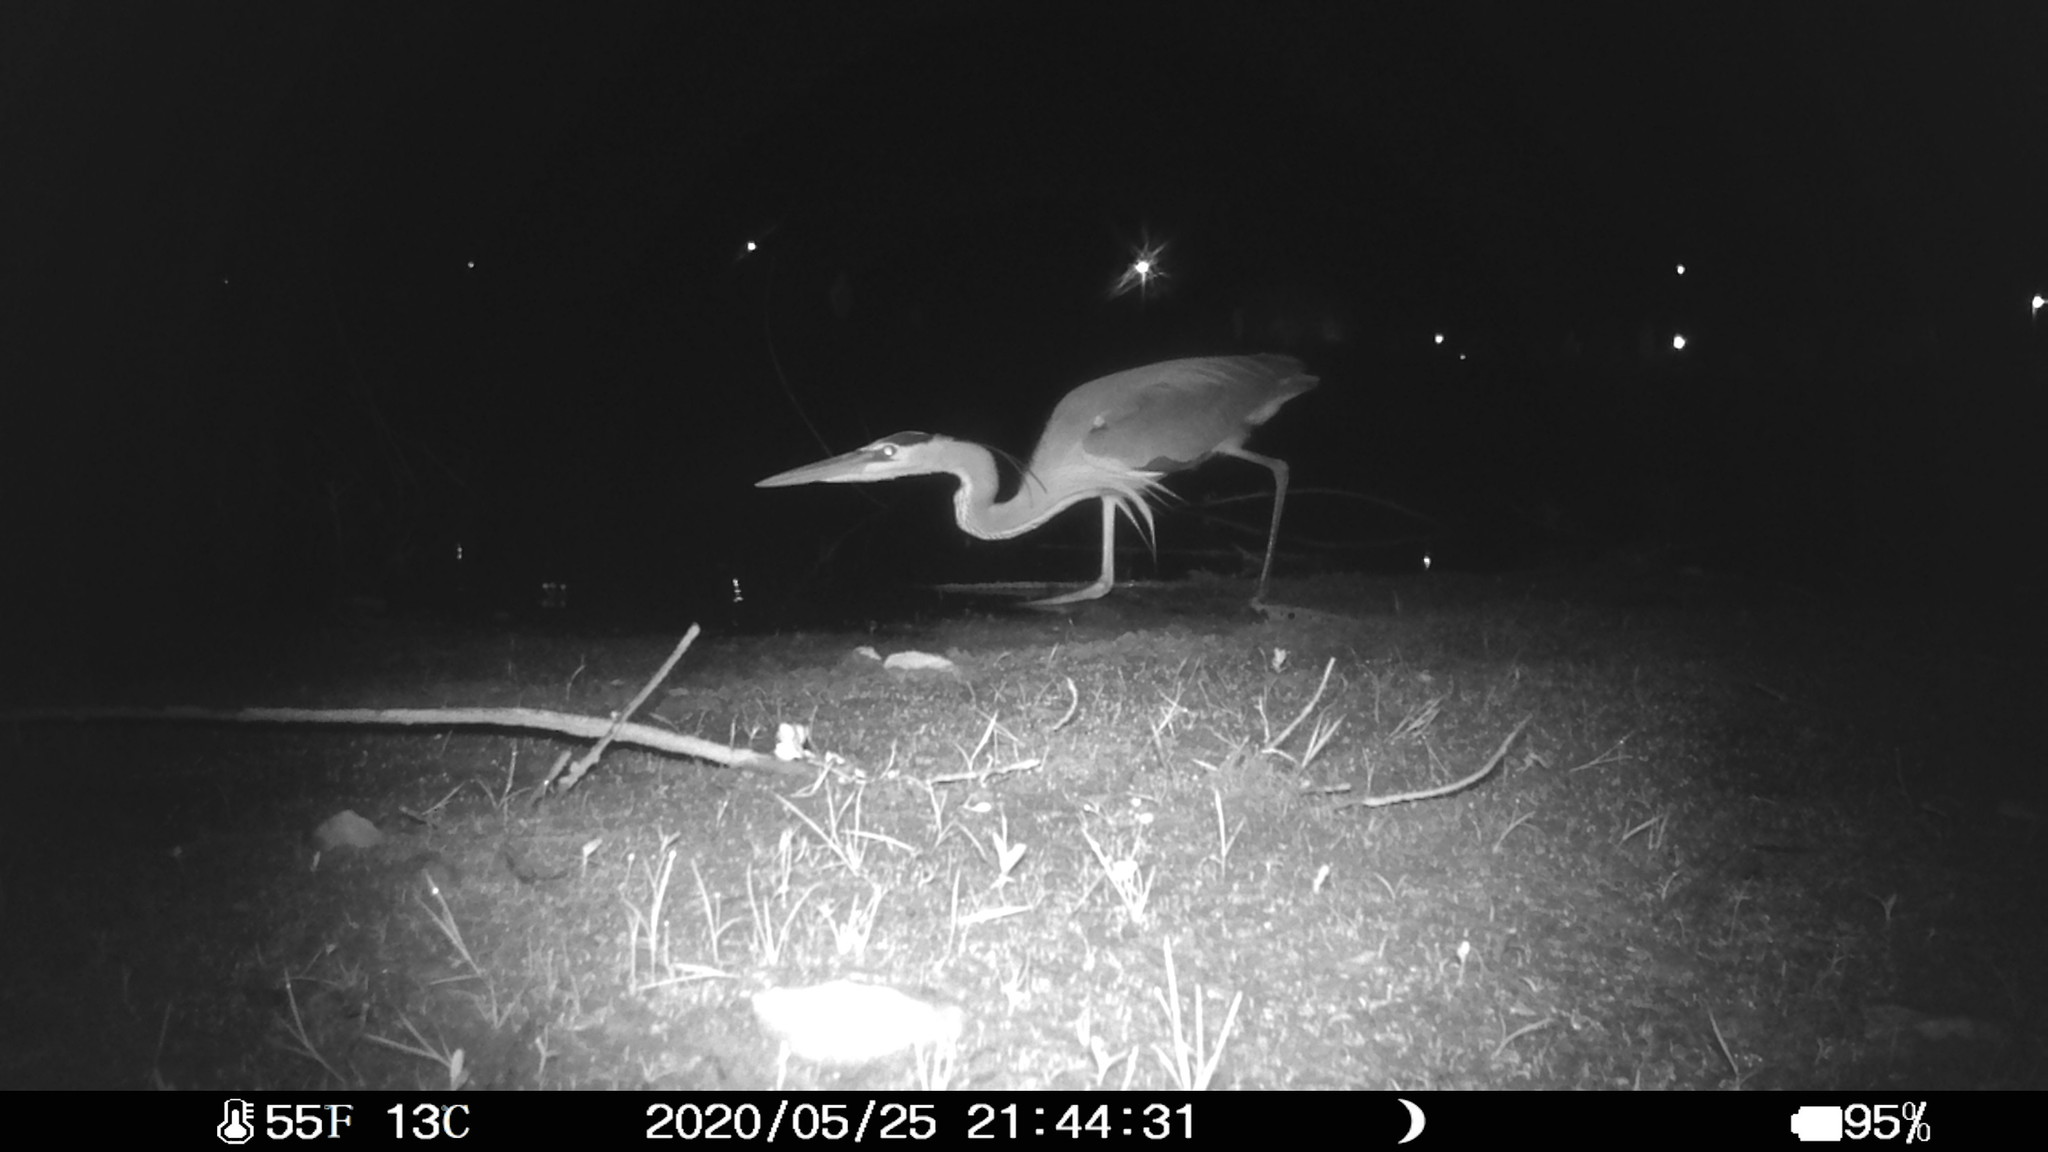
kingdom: Animalia
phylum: Chordata
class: Aves
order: Pelecaniformes
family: Ardeidae
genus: Ardea
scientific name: Ardea herodias
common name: Great blue heron
